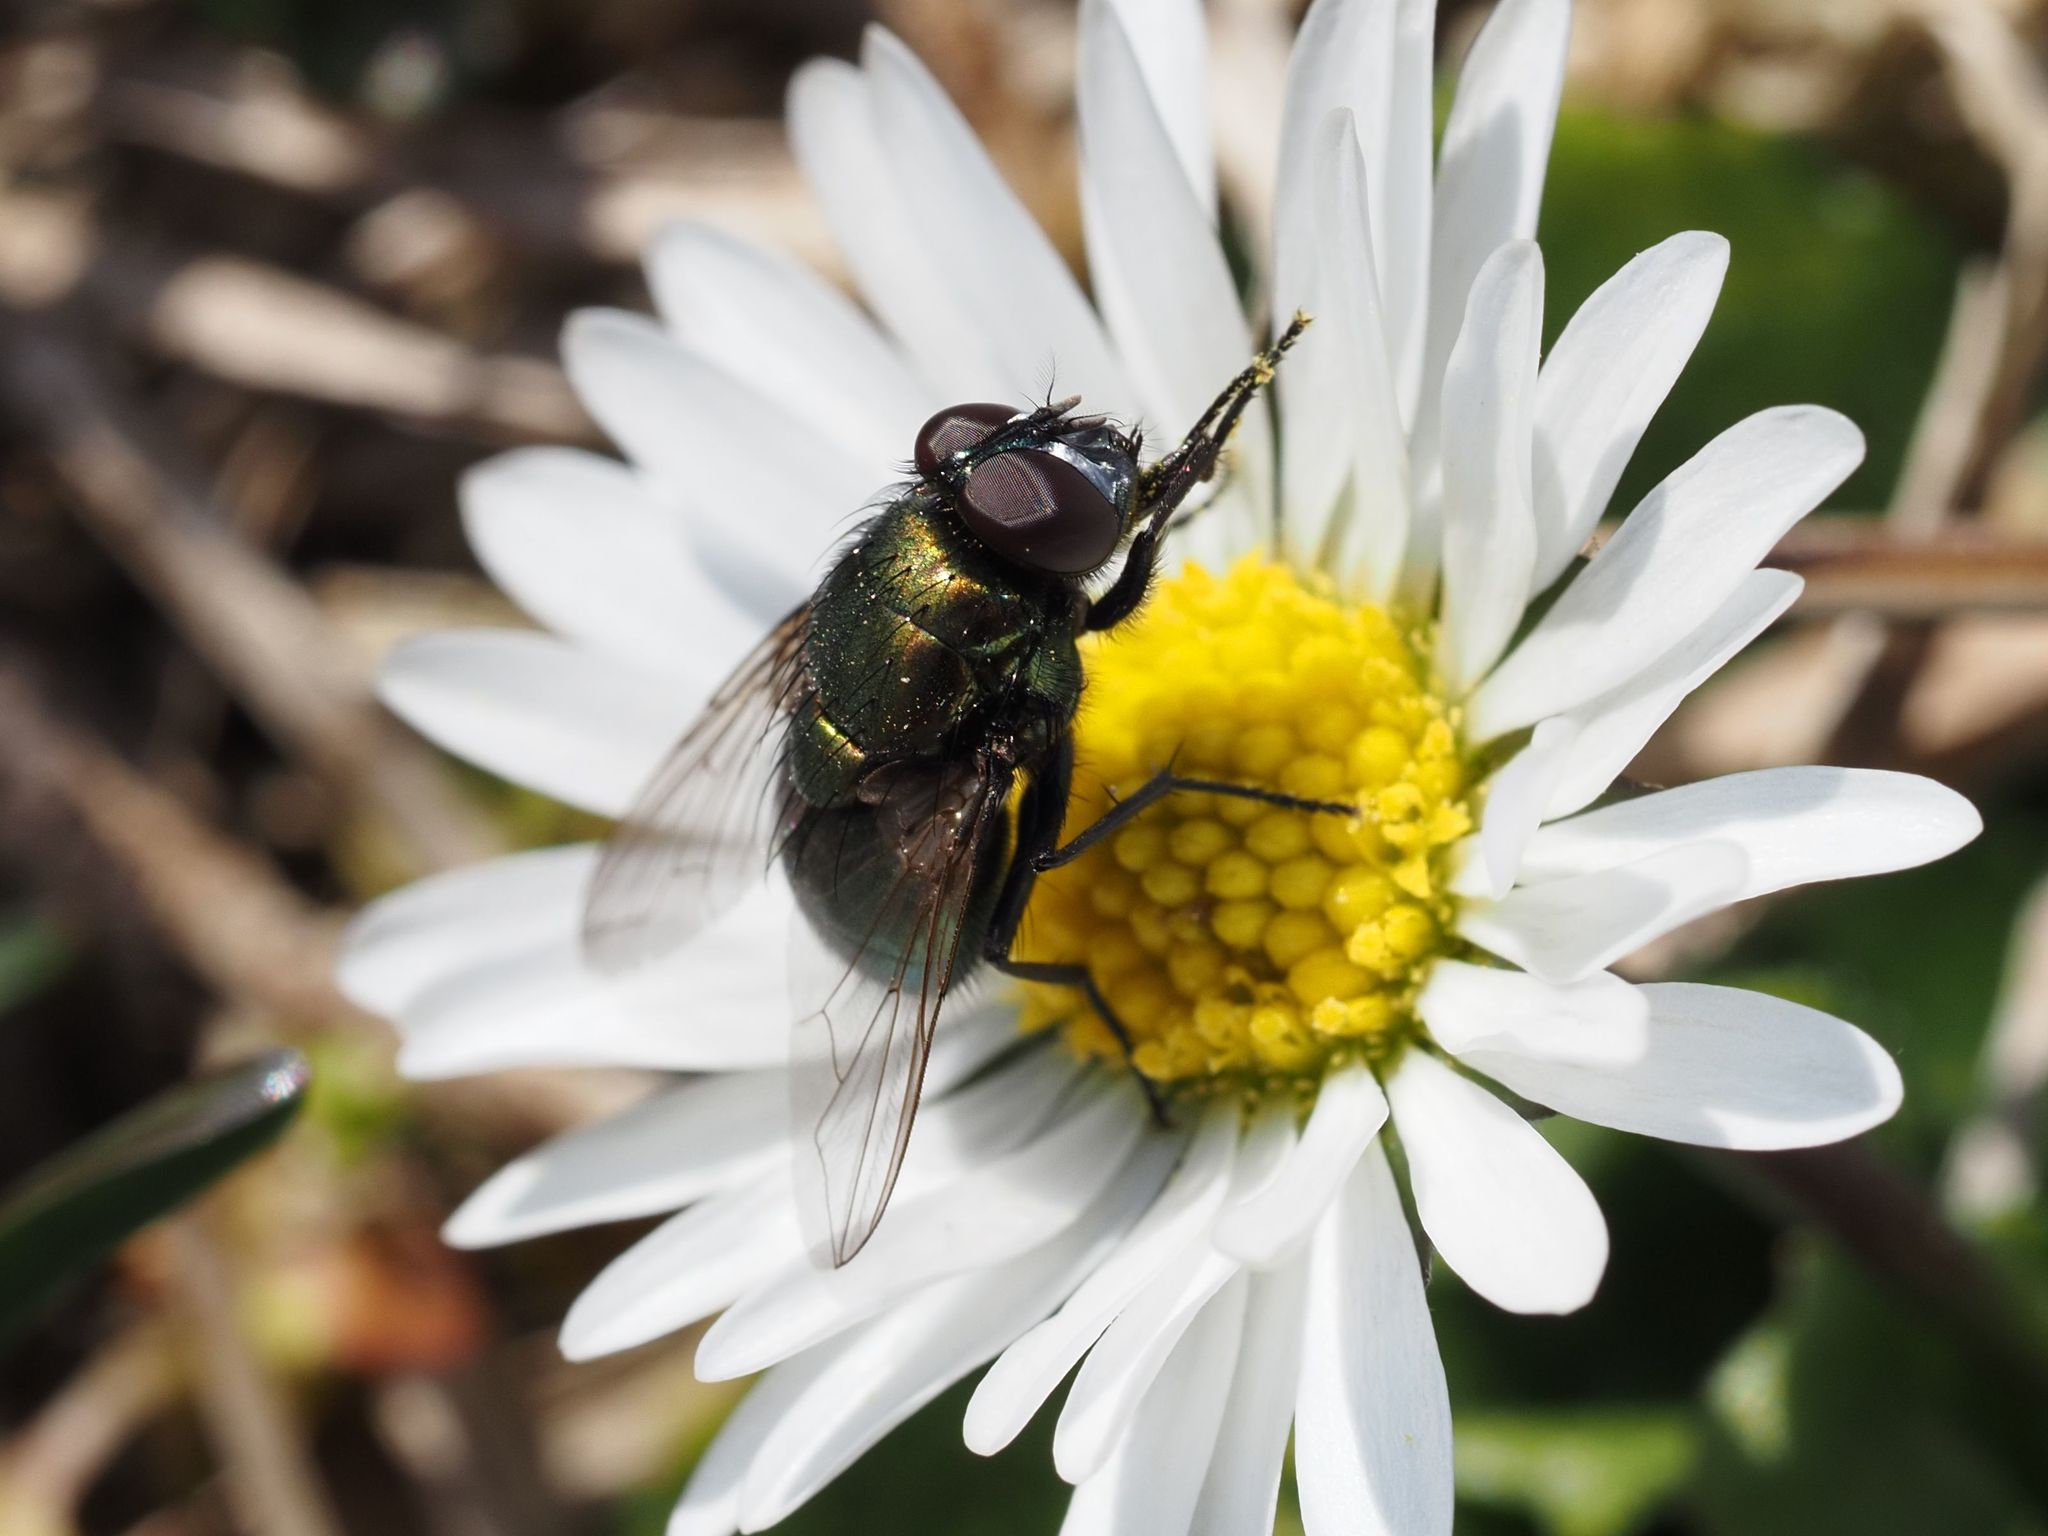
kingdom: Animalia
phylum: Arthropoda
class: Insecta
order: Diptera
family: Muscidae
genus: Neomyia
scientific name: Neomyia cornicina
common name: House fly
